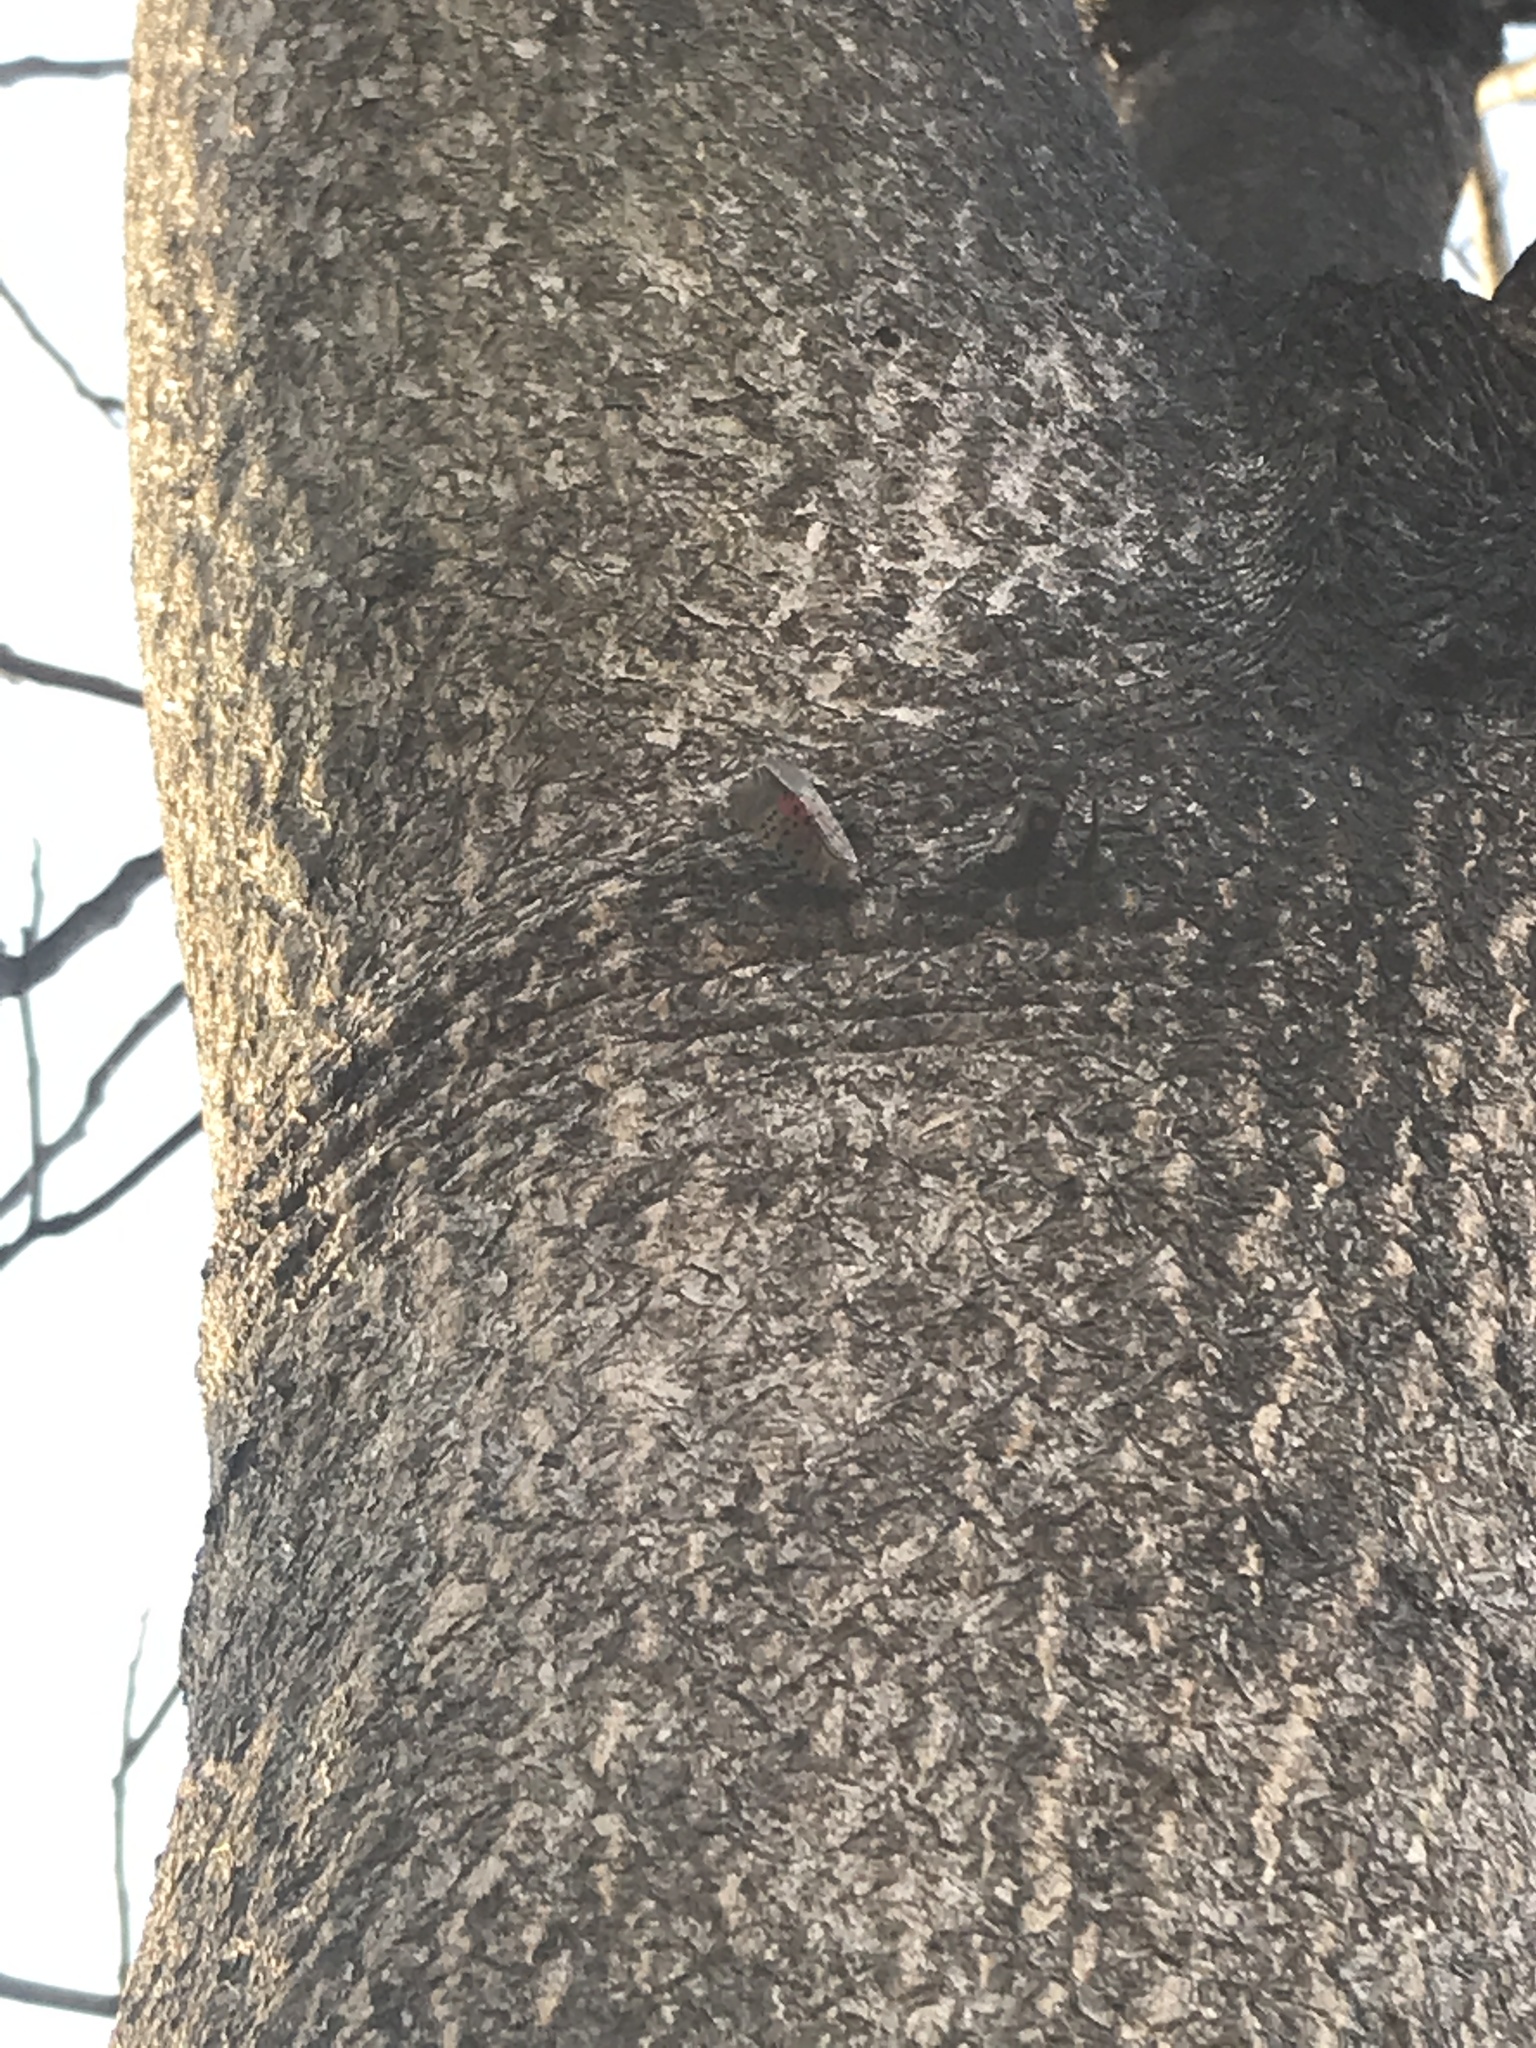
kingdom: Animalia
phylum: Arthropoda
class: Insecta
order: Hemiptera
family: Fulgoridae
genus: Lycorma
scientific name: Lycorma delicatula
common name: Spotted lanternfly
